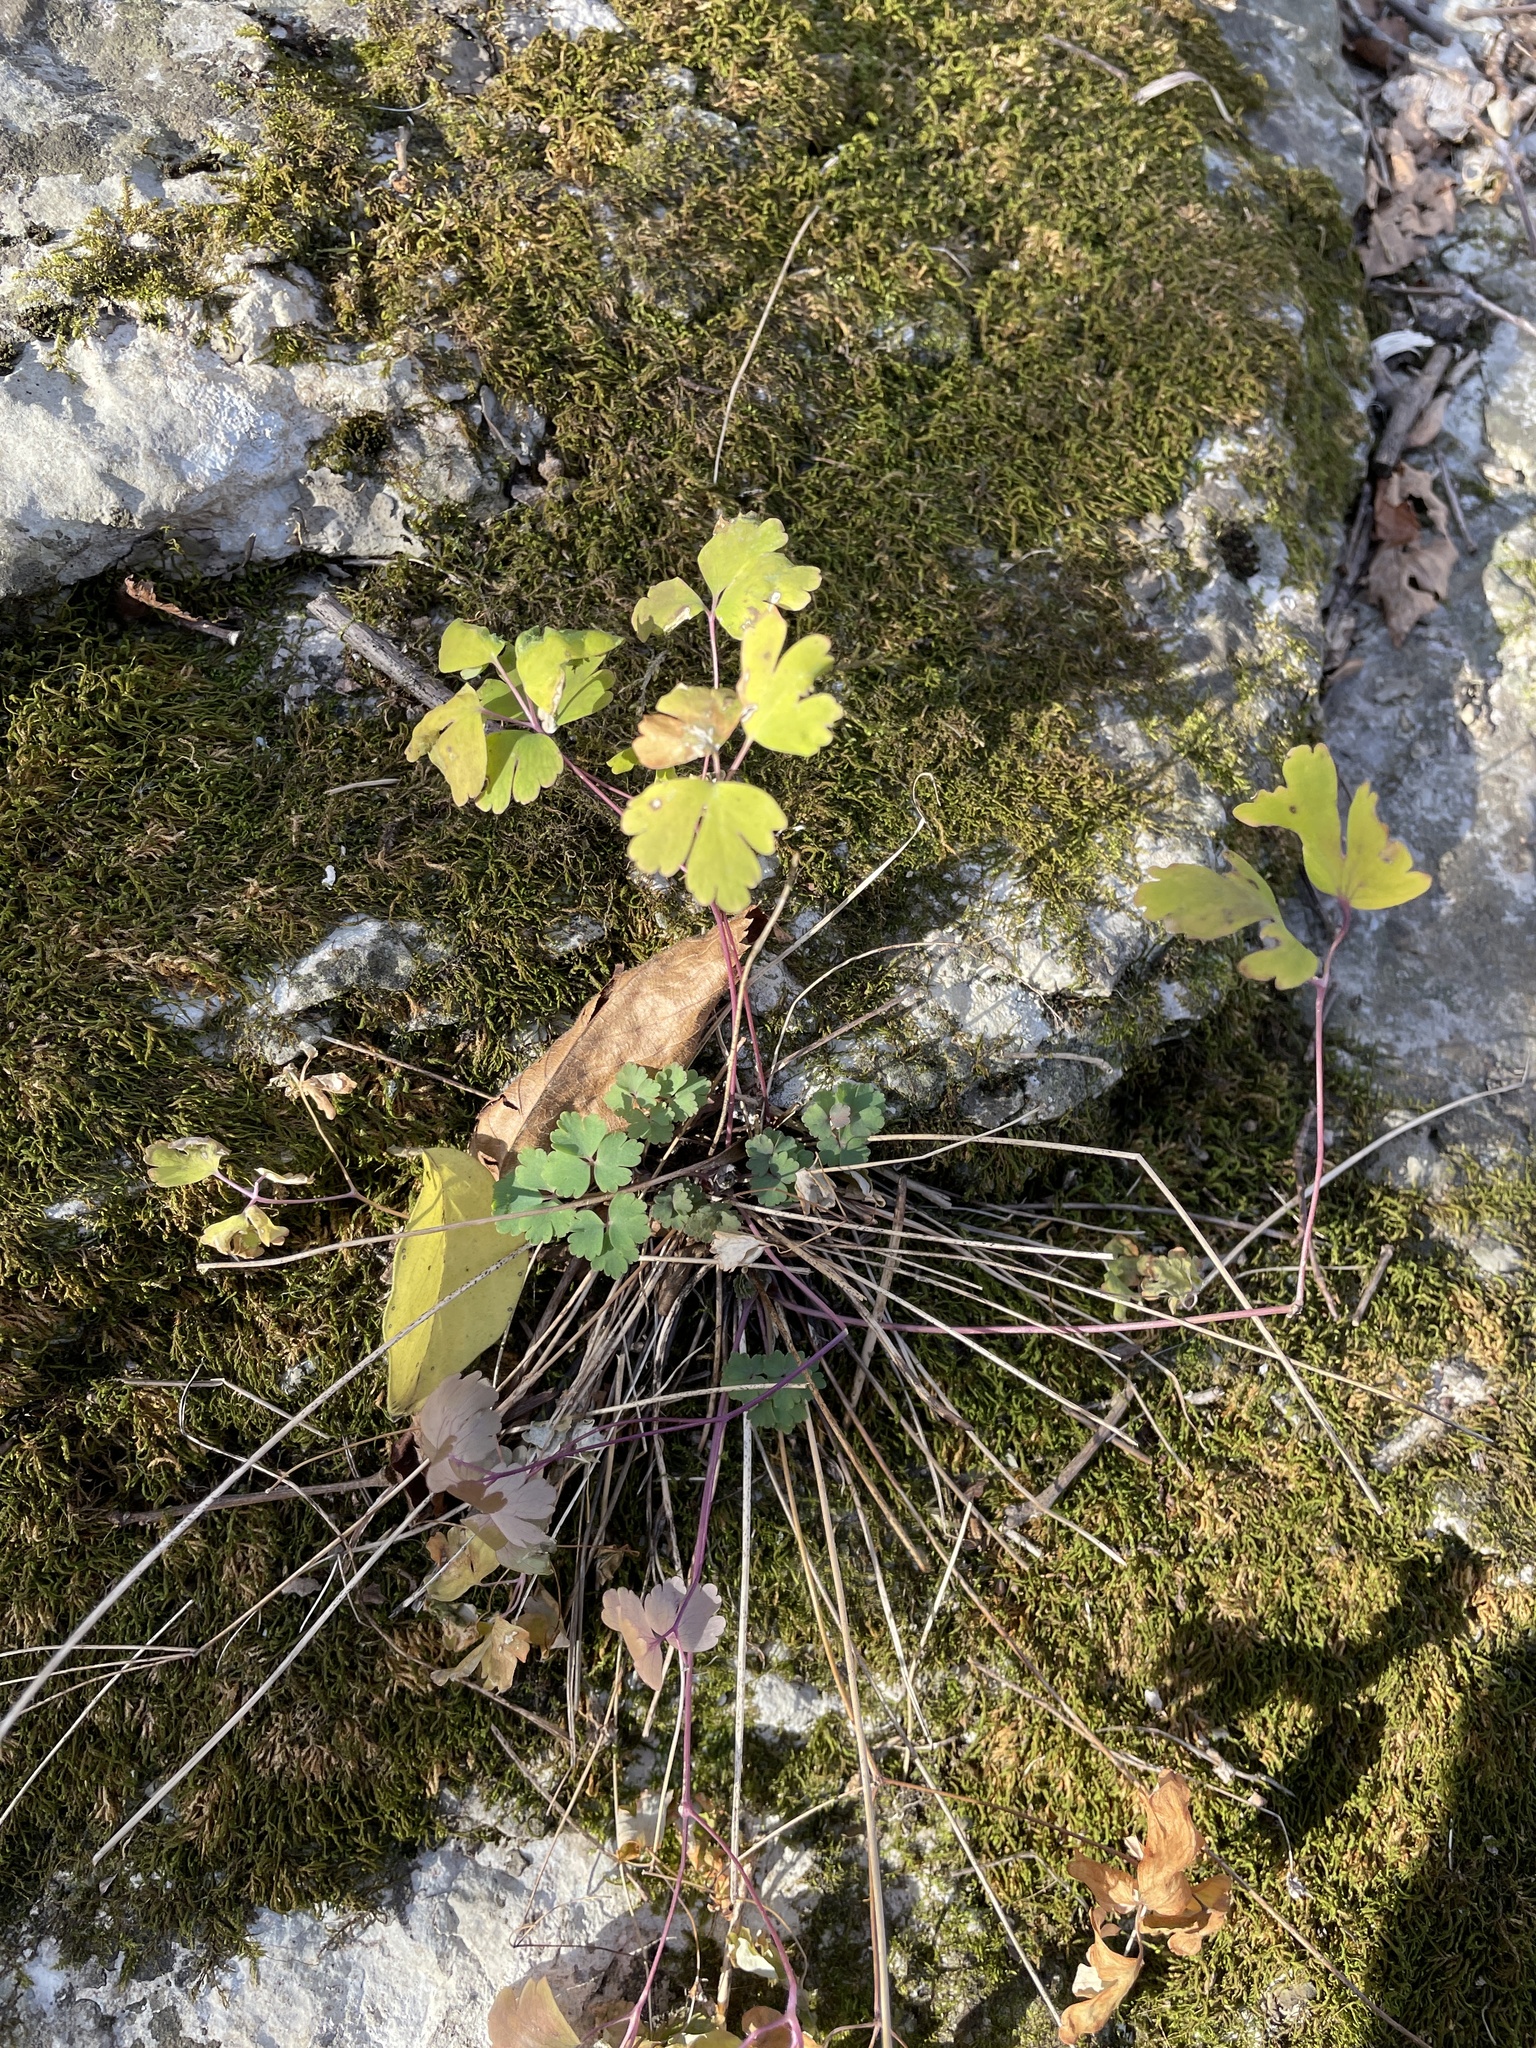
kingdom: Plantae
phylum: Tracheophyta
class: Magnoliopsida
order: Ranunculales
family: Ranunculaceae
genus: Aquilegia
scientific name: Aquilegia canadensis
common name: American columbine
